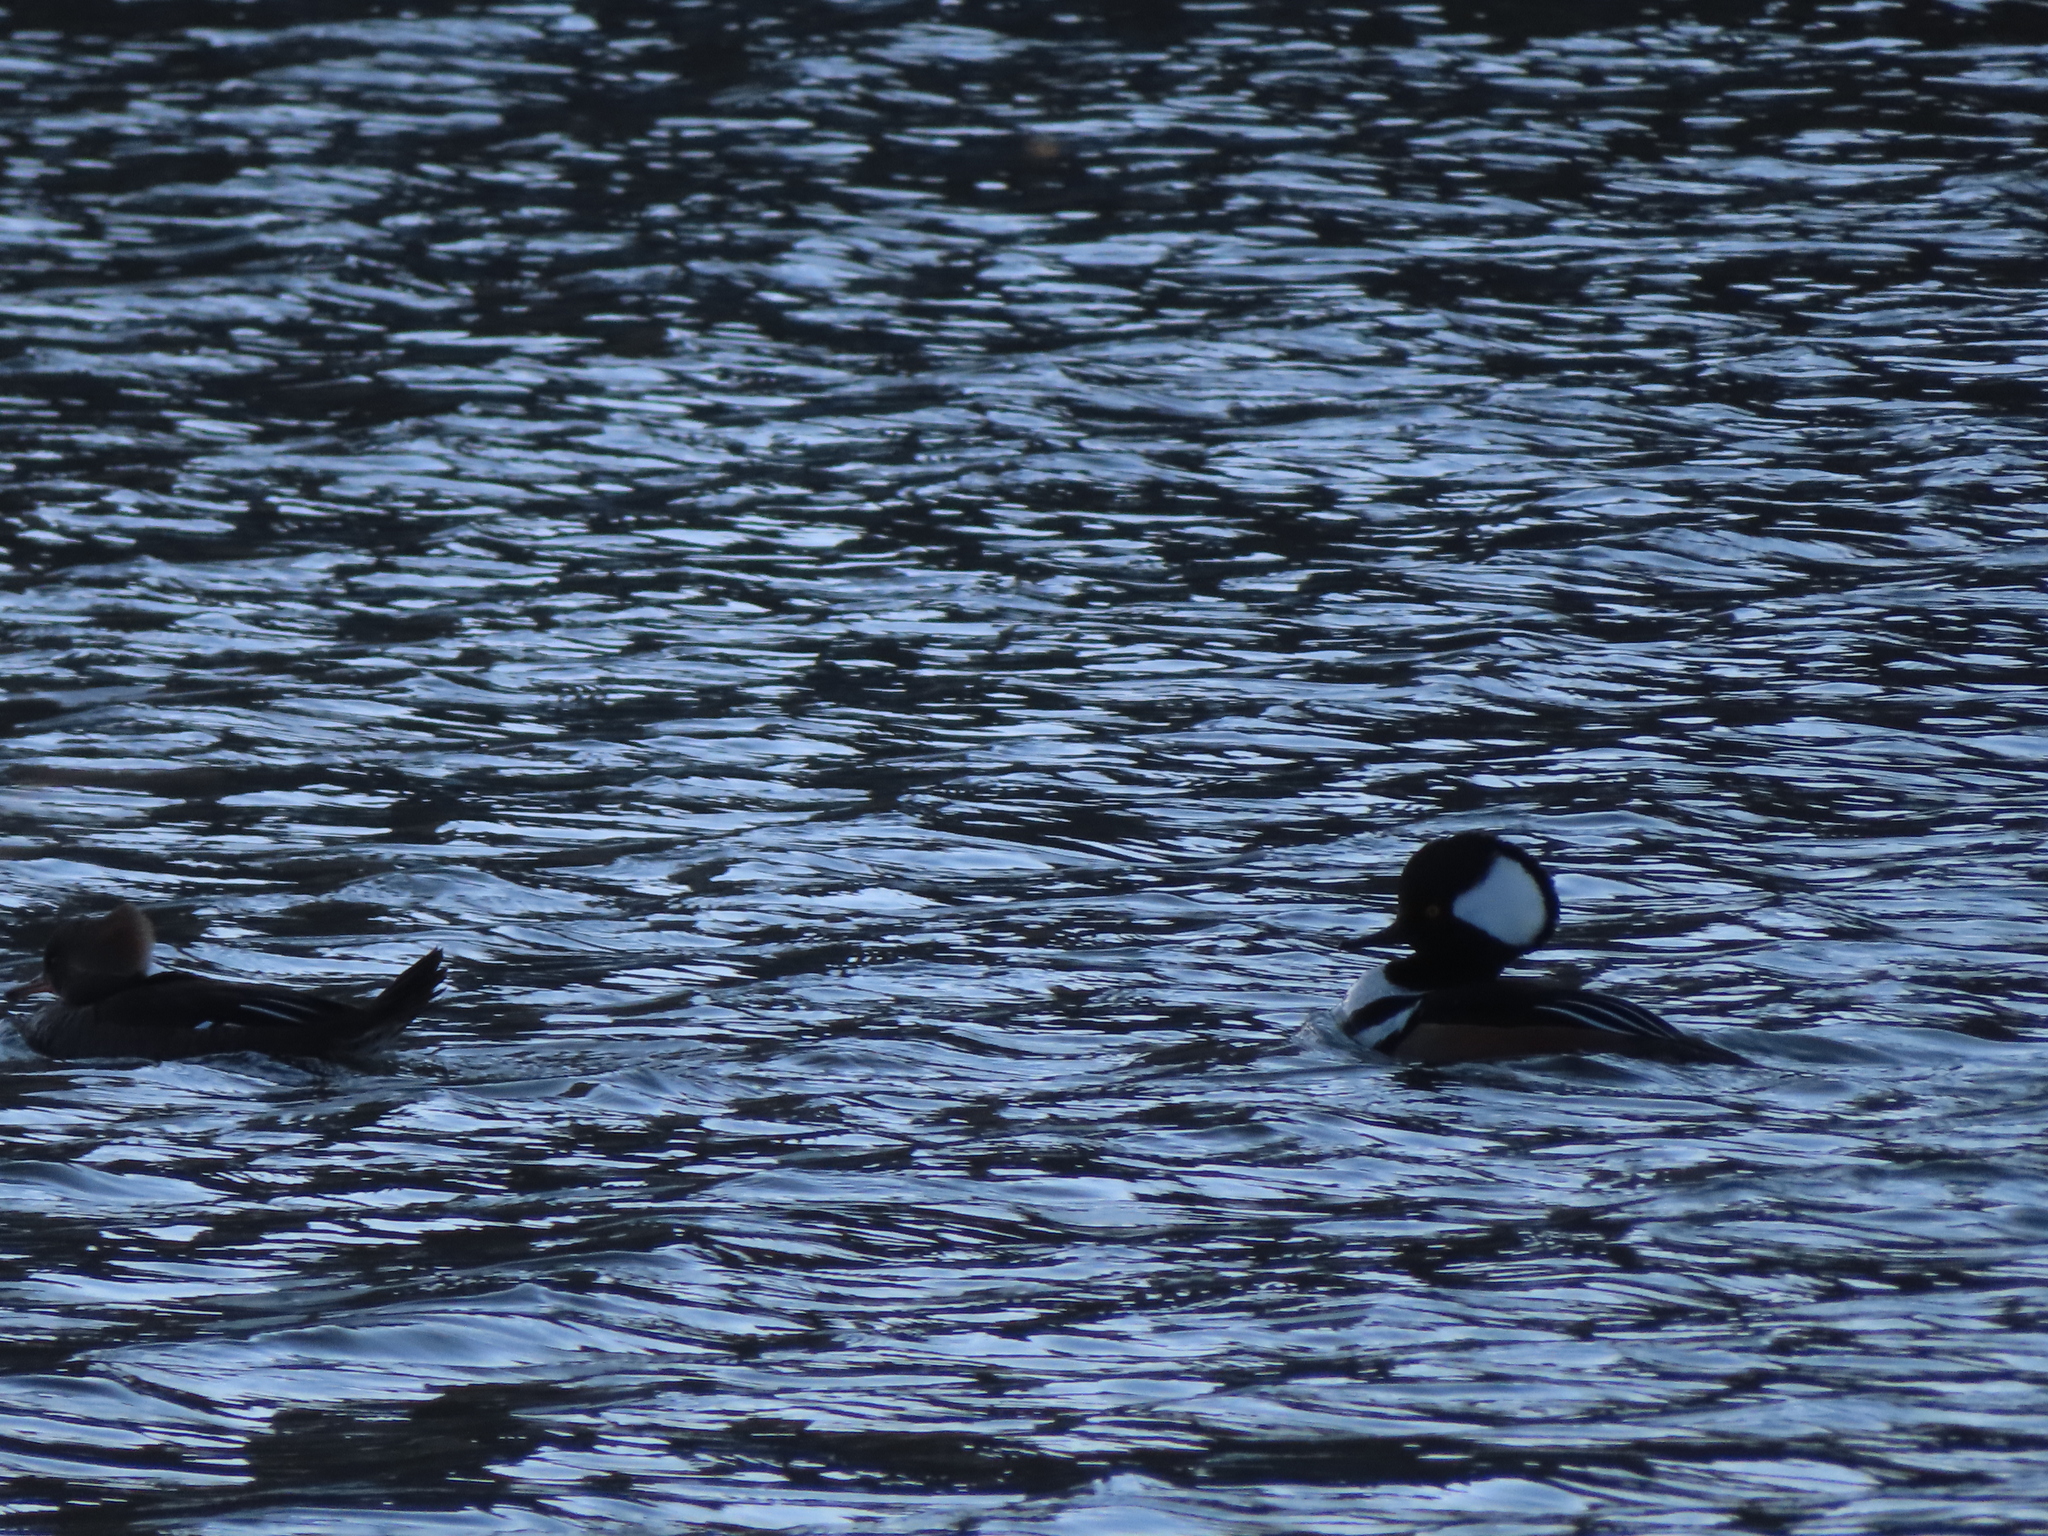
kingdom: Animalia
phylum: Chordata
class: Aves
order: Anseriformes
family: Anatidae
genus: Lophodytes
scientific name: Lophodytes cucullatus
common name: Hooded merganser
